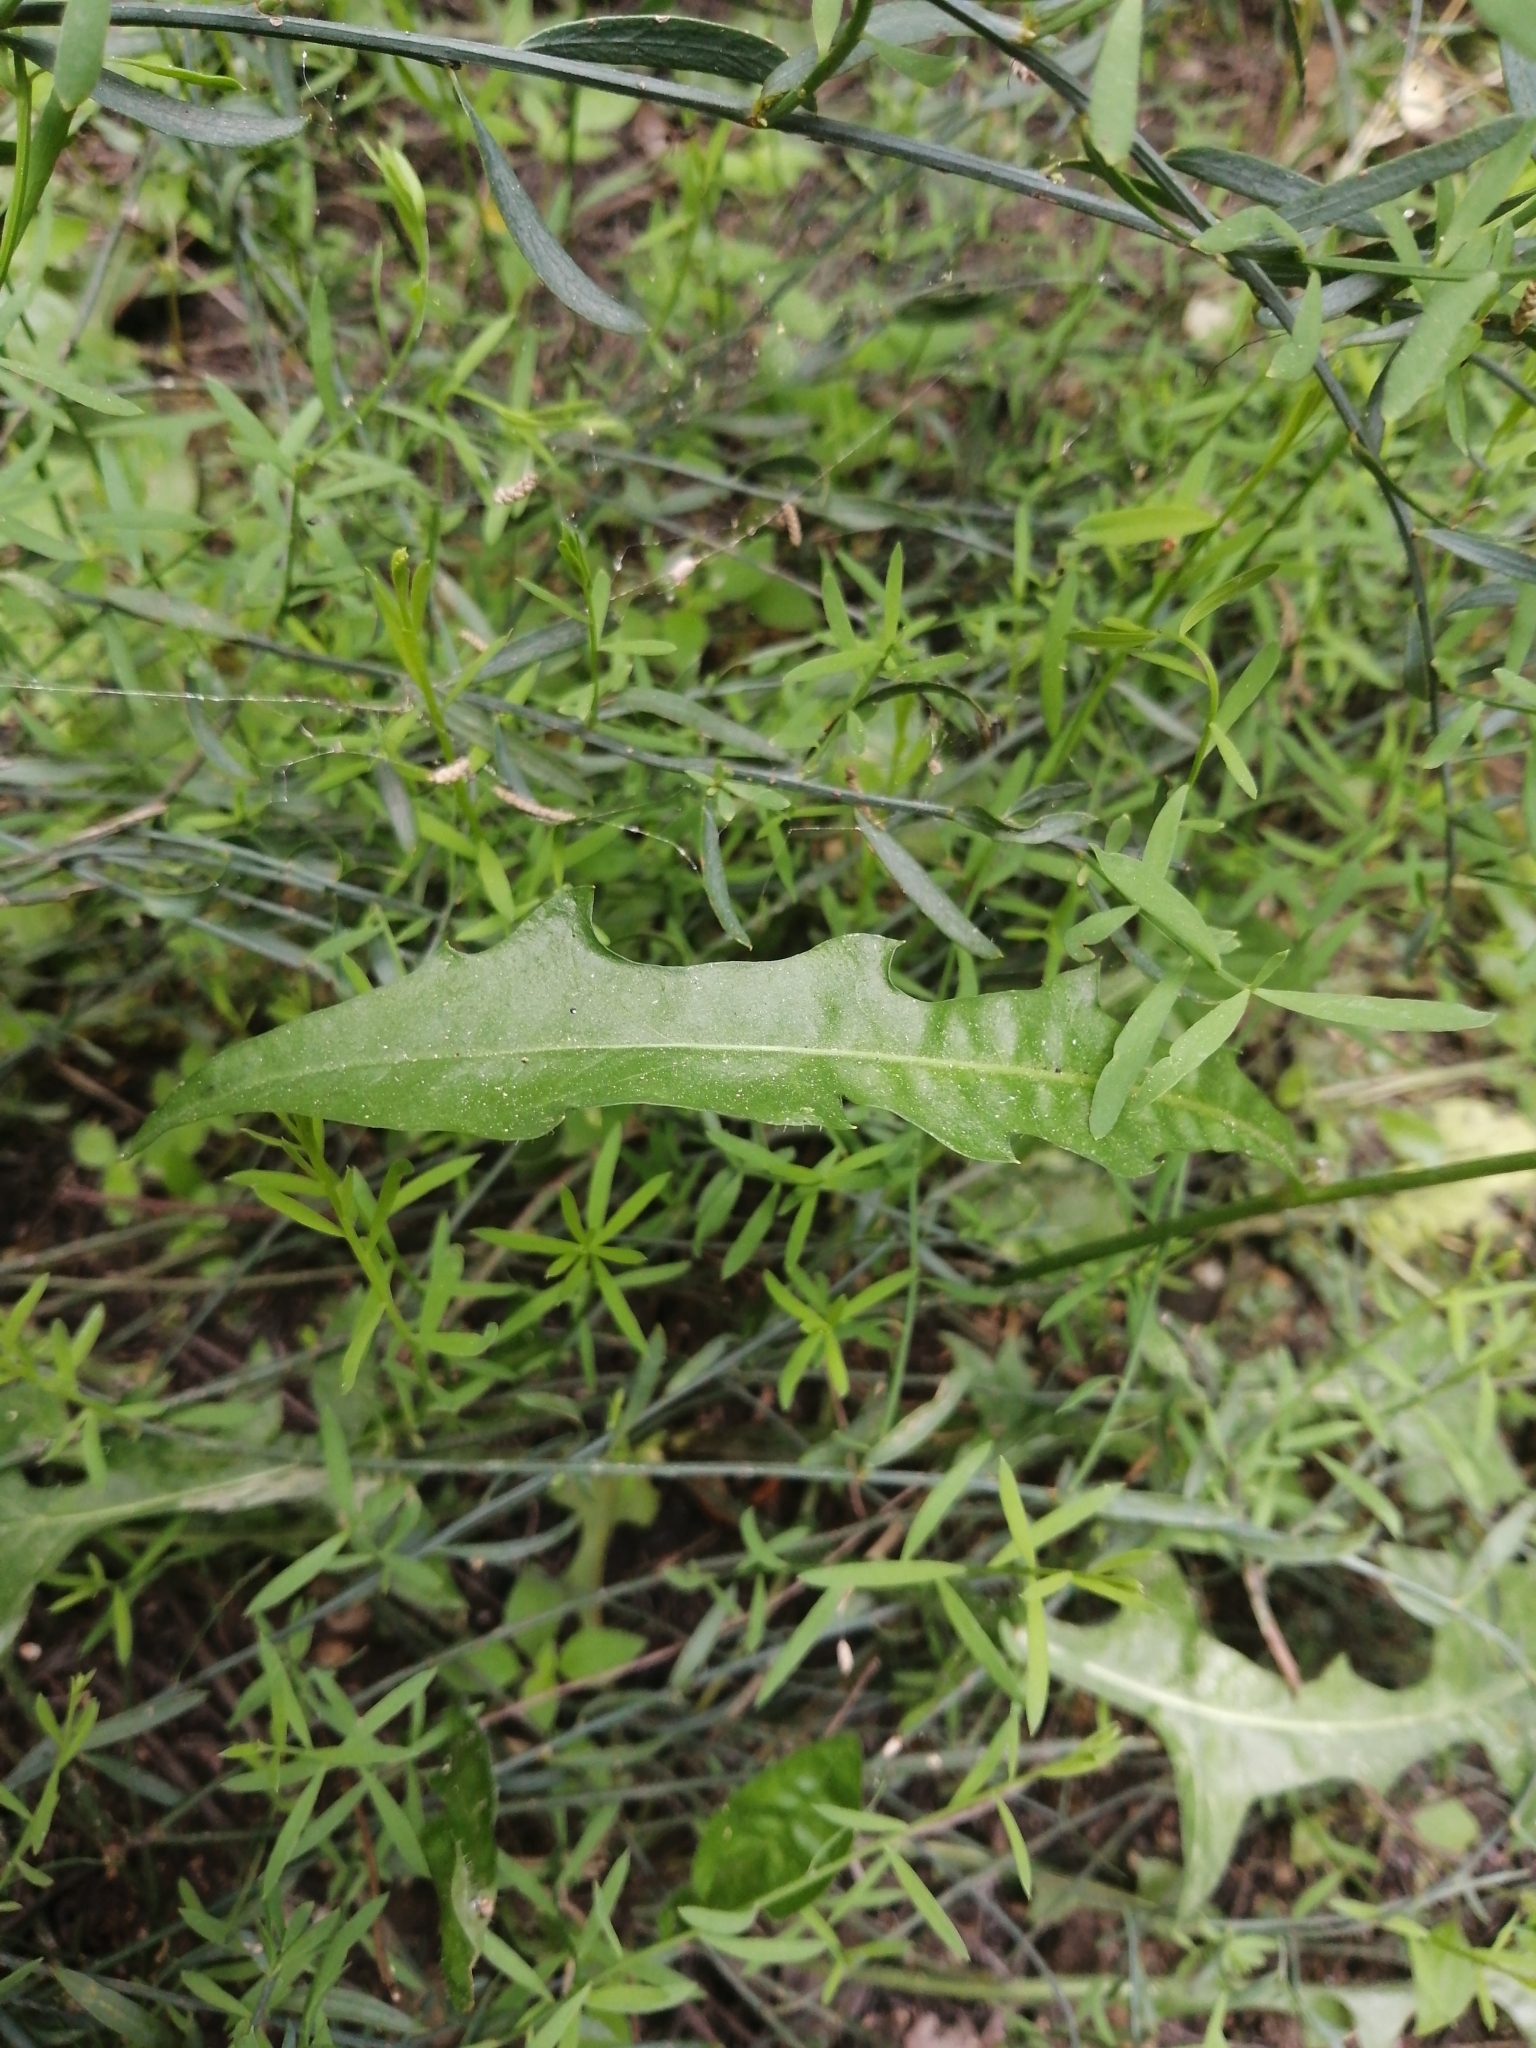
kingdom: Plantae
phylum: Tracheophyta
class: Magnoliopsida
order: Asterales
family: Asteraceae
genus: Leontodon
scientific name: Leontodon tuberosus
